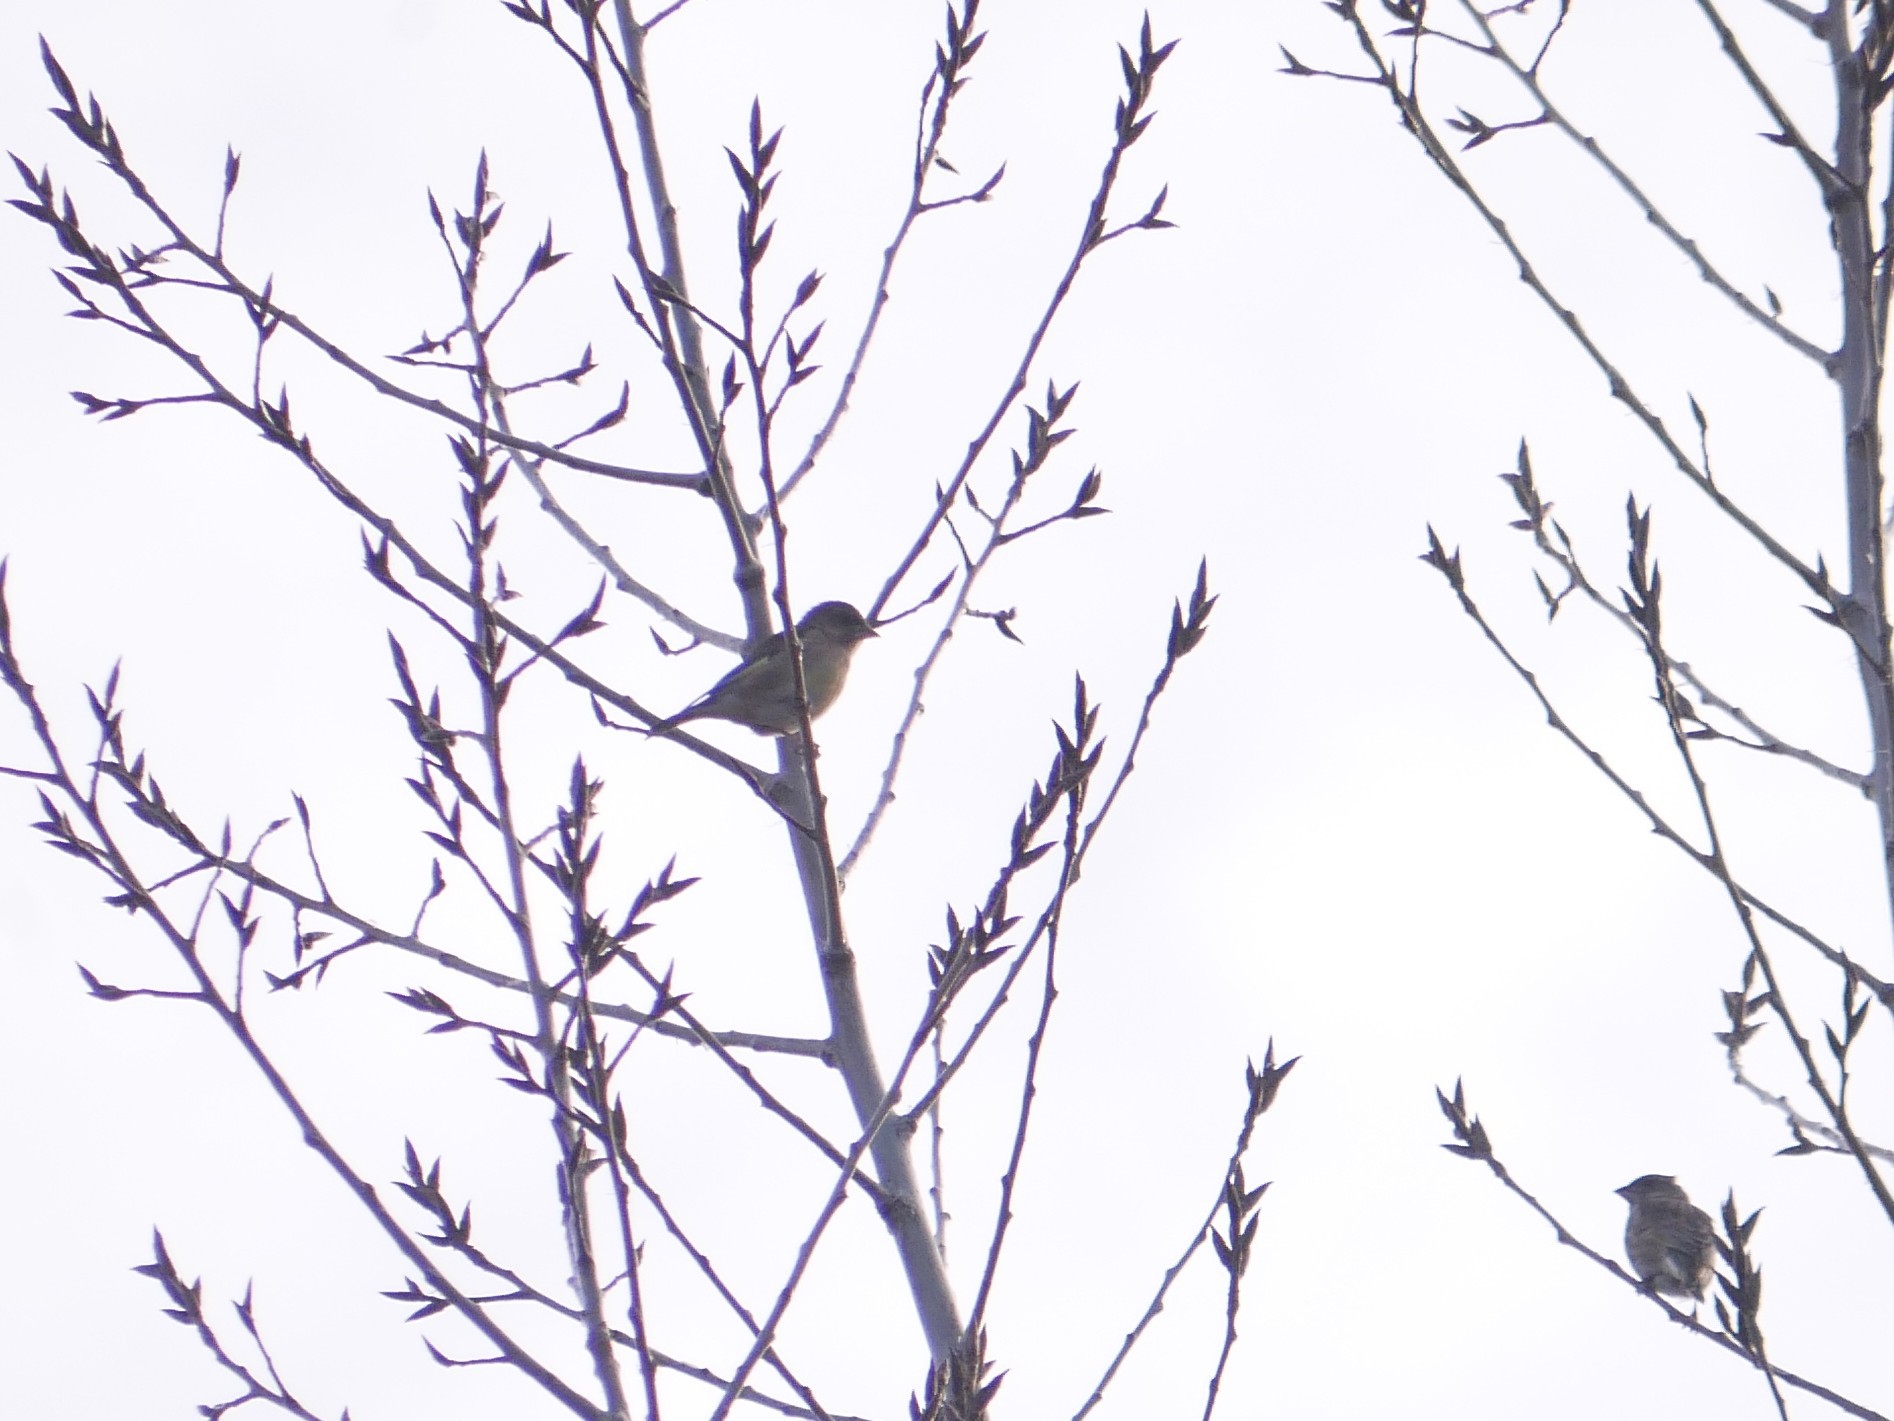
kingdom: Plantae
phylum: Tracheophyta
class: Liliopsida
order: Poales
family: Poaceae
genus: Chloris
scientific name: Chloris chloris
